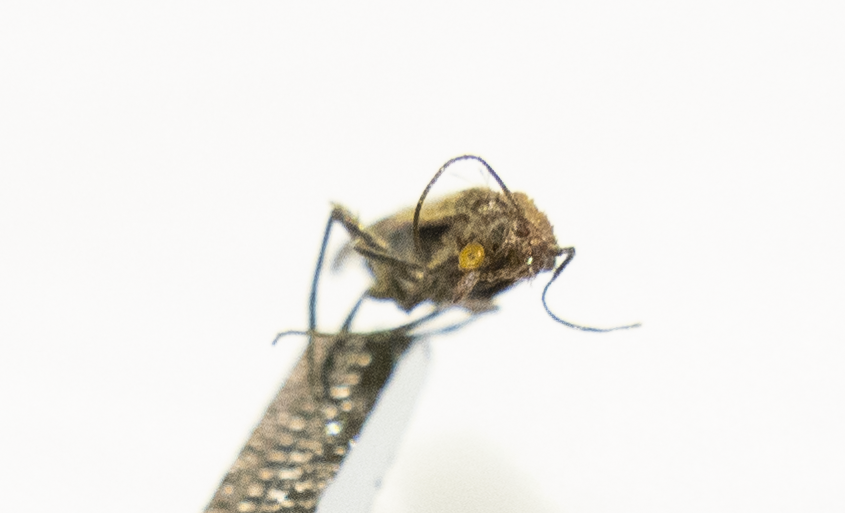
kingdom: Animalia
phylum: Arthropoda
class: Insecta
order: Lepidoptera
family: Pyralidae
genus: Plodia
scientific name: Plodia interpunctella
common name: Indian meal moth
